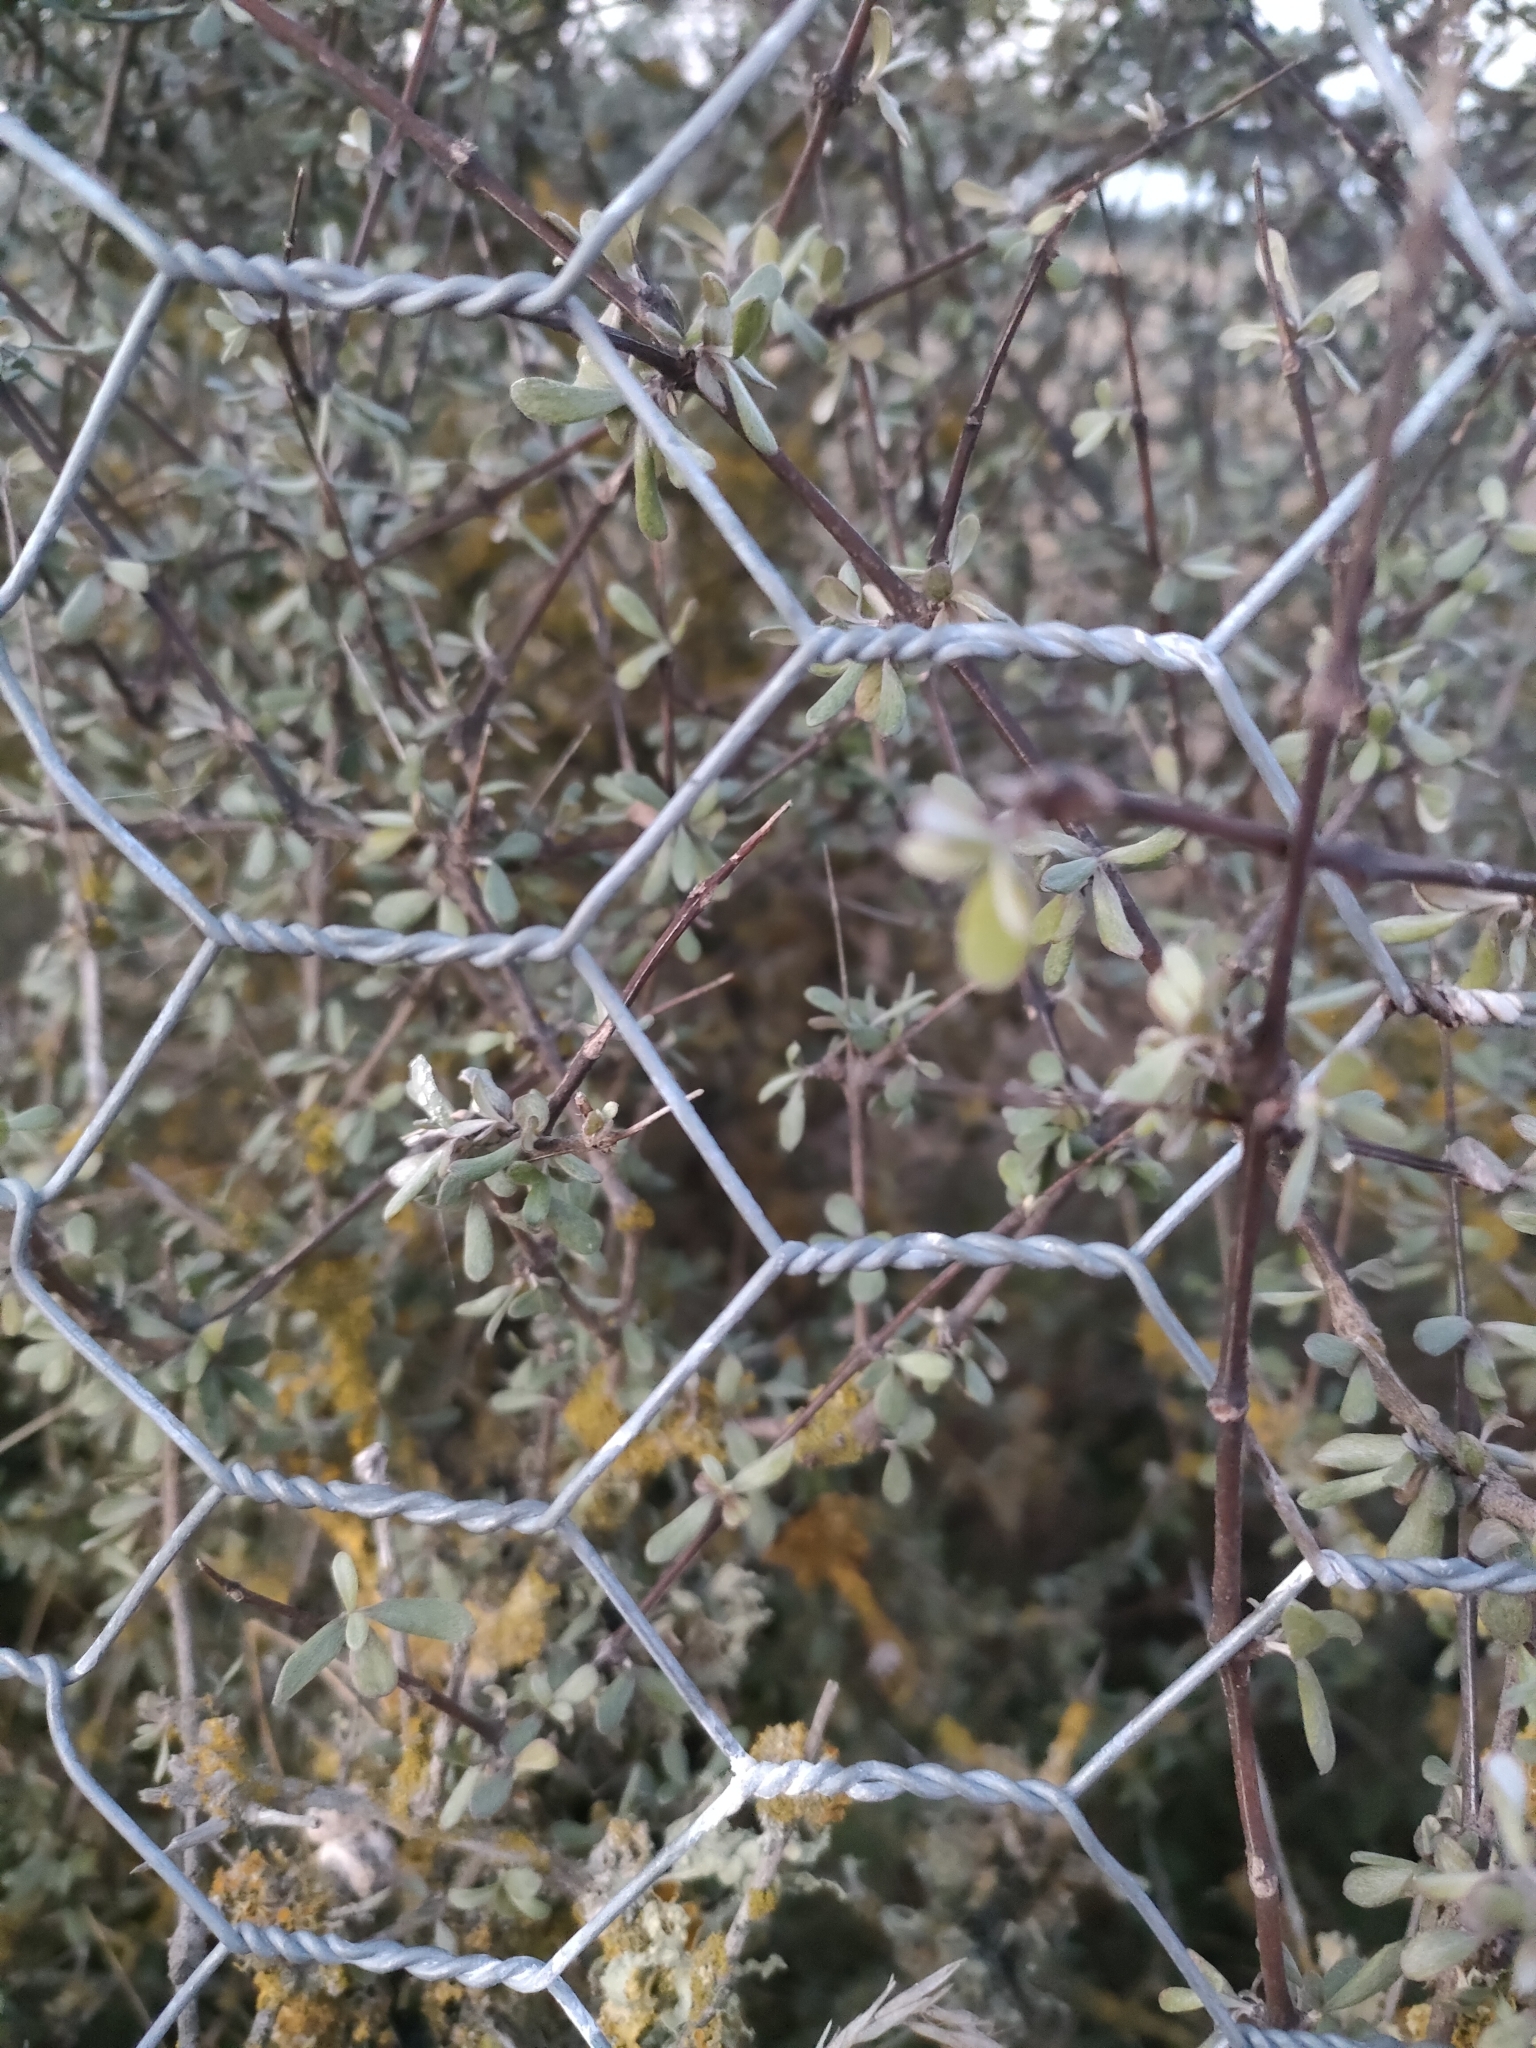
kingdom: Plantae
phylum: Tracheophyta
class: Magnoliopsida
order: Asterales
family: Asteraceae
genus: Olearia
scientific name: Olearia adenocarpa
